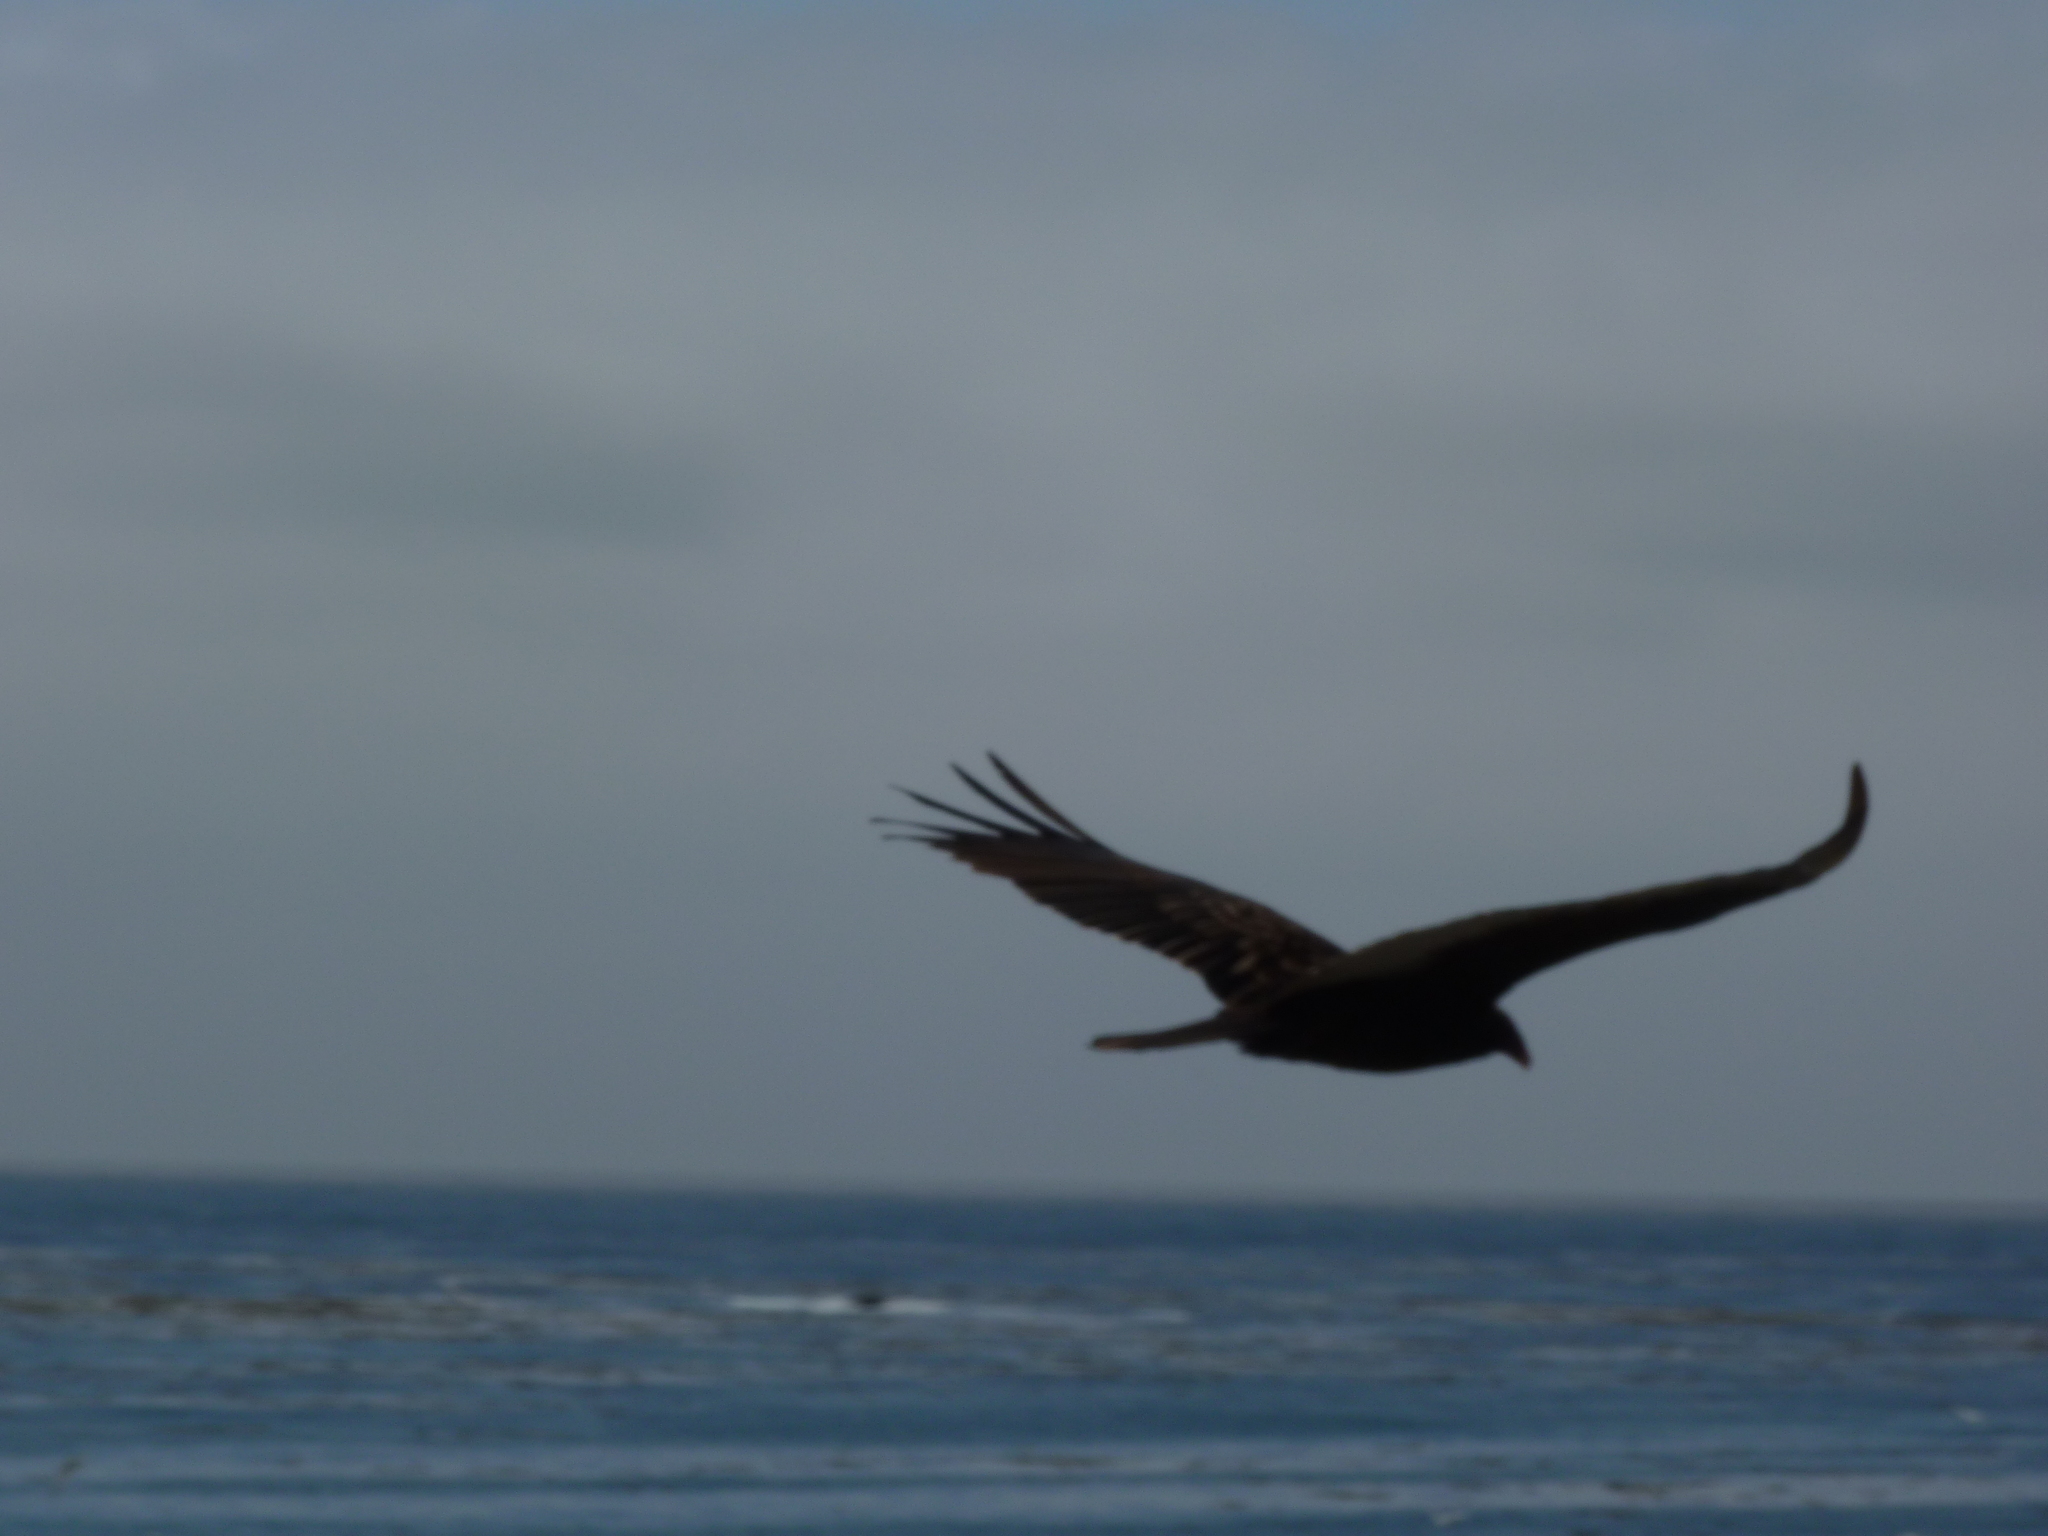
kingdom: Animalia
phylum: Chordata
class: Aves
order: Accipitriformes
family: Cathartidae
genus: Cathartes
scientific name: Cathartes aura
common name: Turkey vulture
